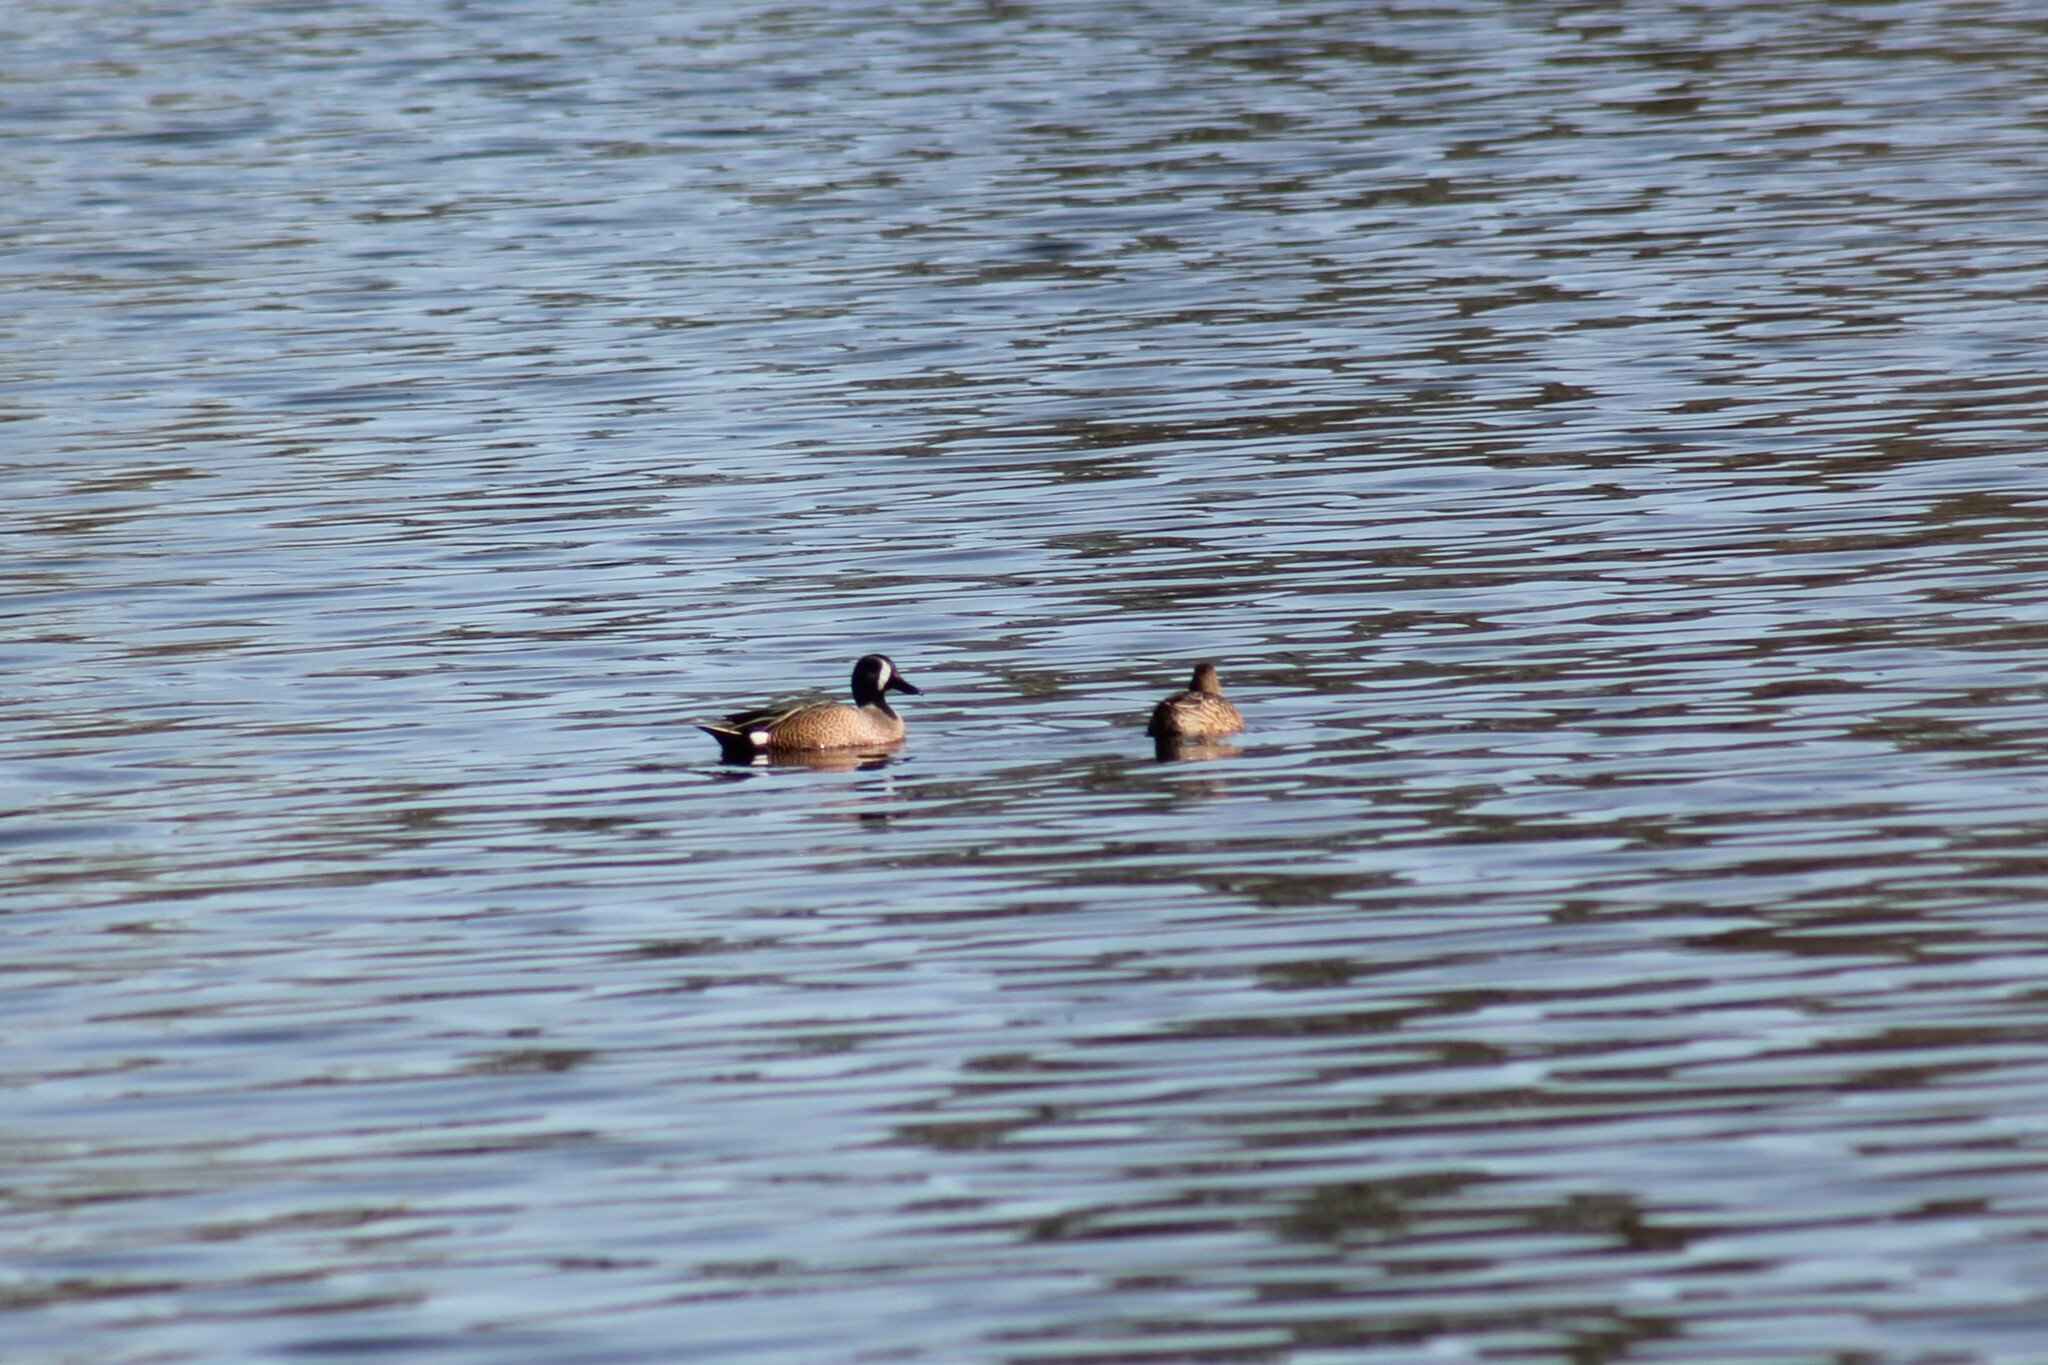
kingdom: Animalia
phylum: Chordata
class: Aves
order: Anseriformes
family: Anatidae
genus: Spatula
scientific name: Spatula discors
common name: Blue-winged teal
